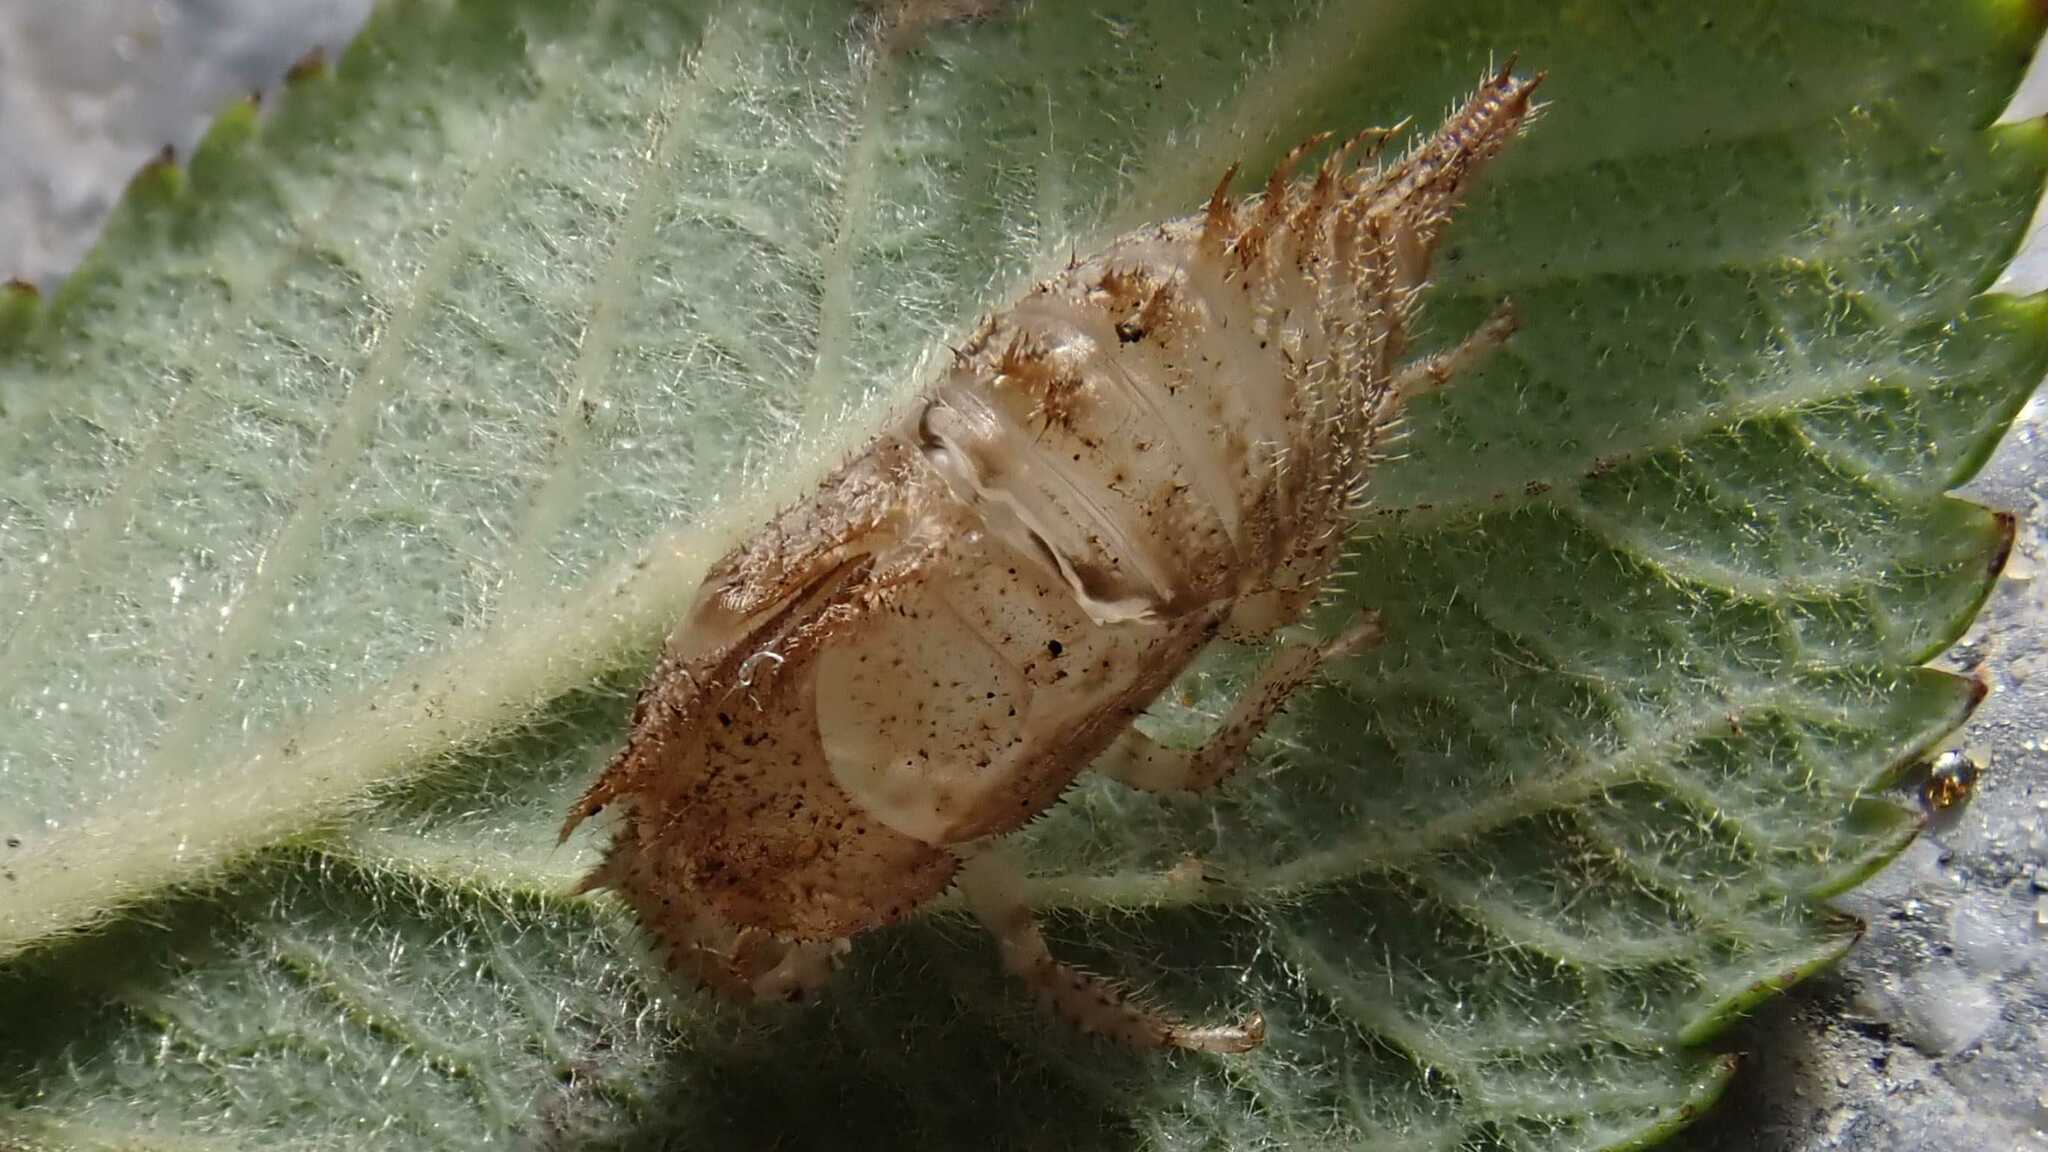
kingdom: Animalia
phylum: Arthropoda
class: Insecta
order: Hemiptera
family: Membracidae
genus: Stictocephala
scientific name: Stictocephala bisonia
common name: American buffalo treehopper
